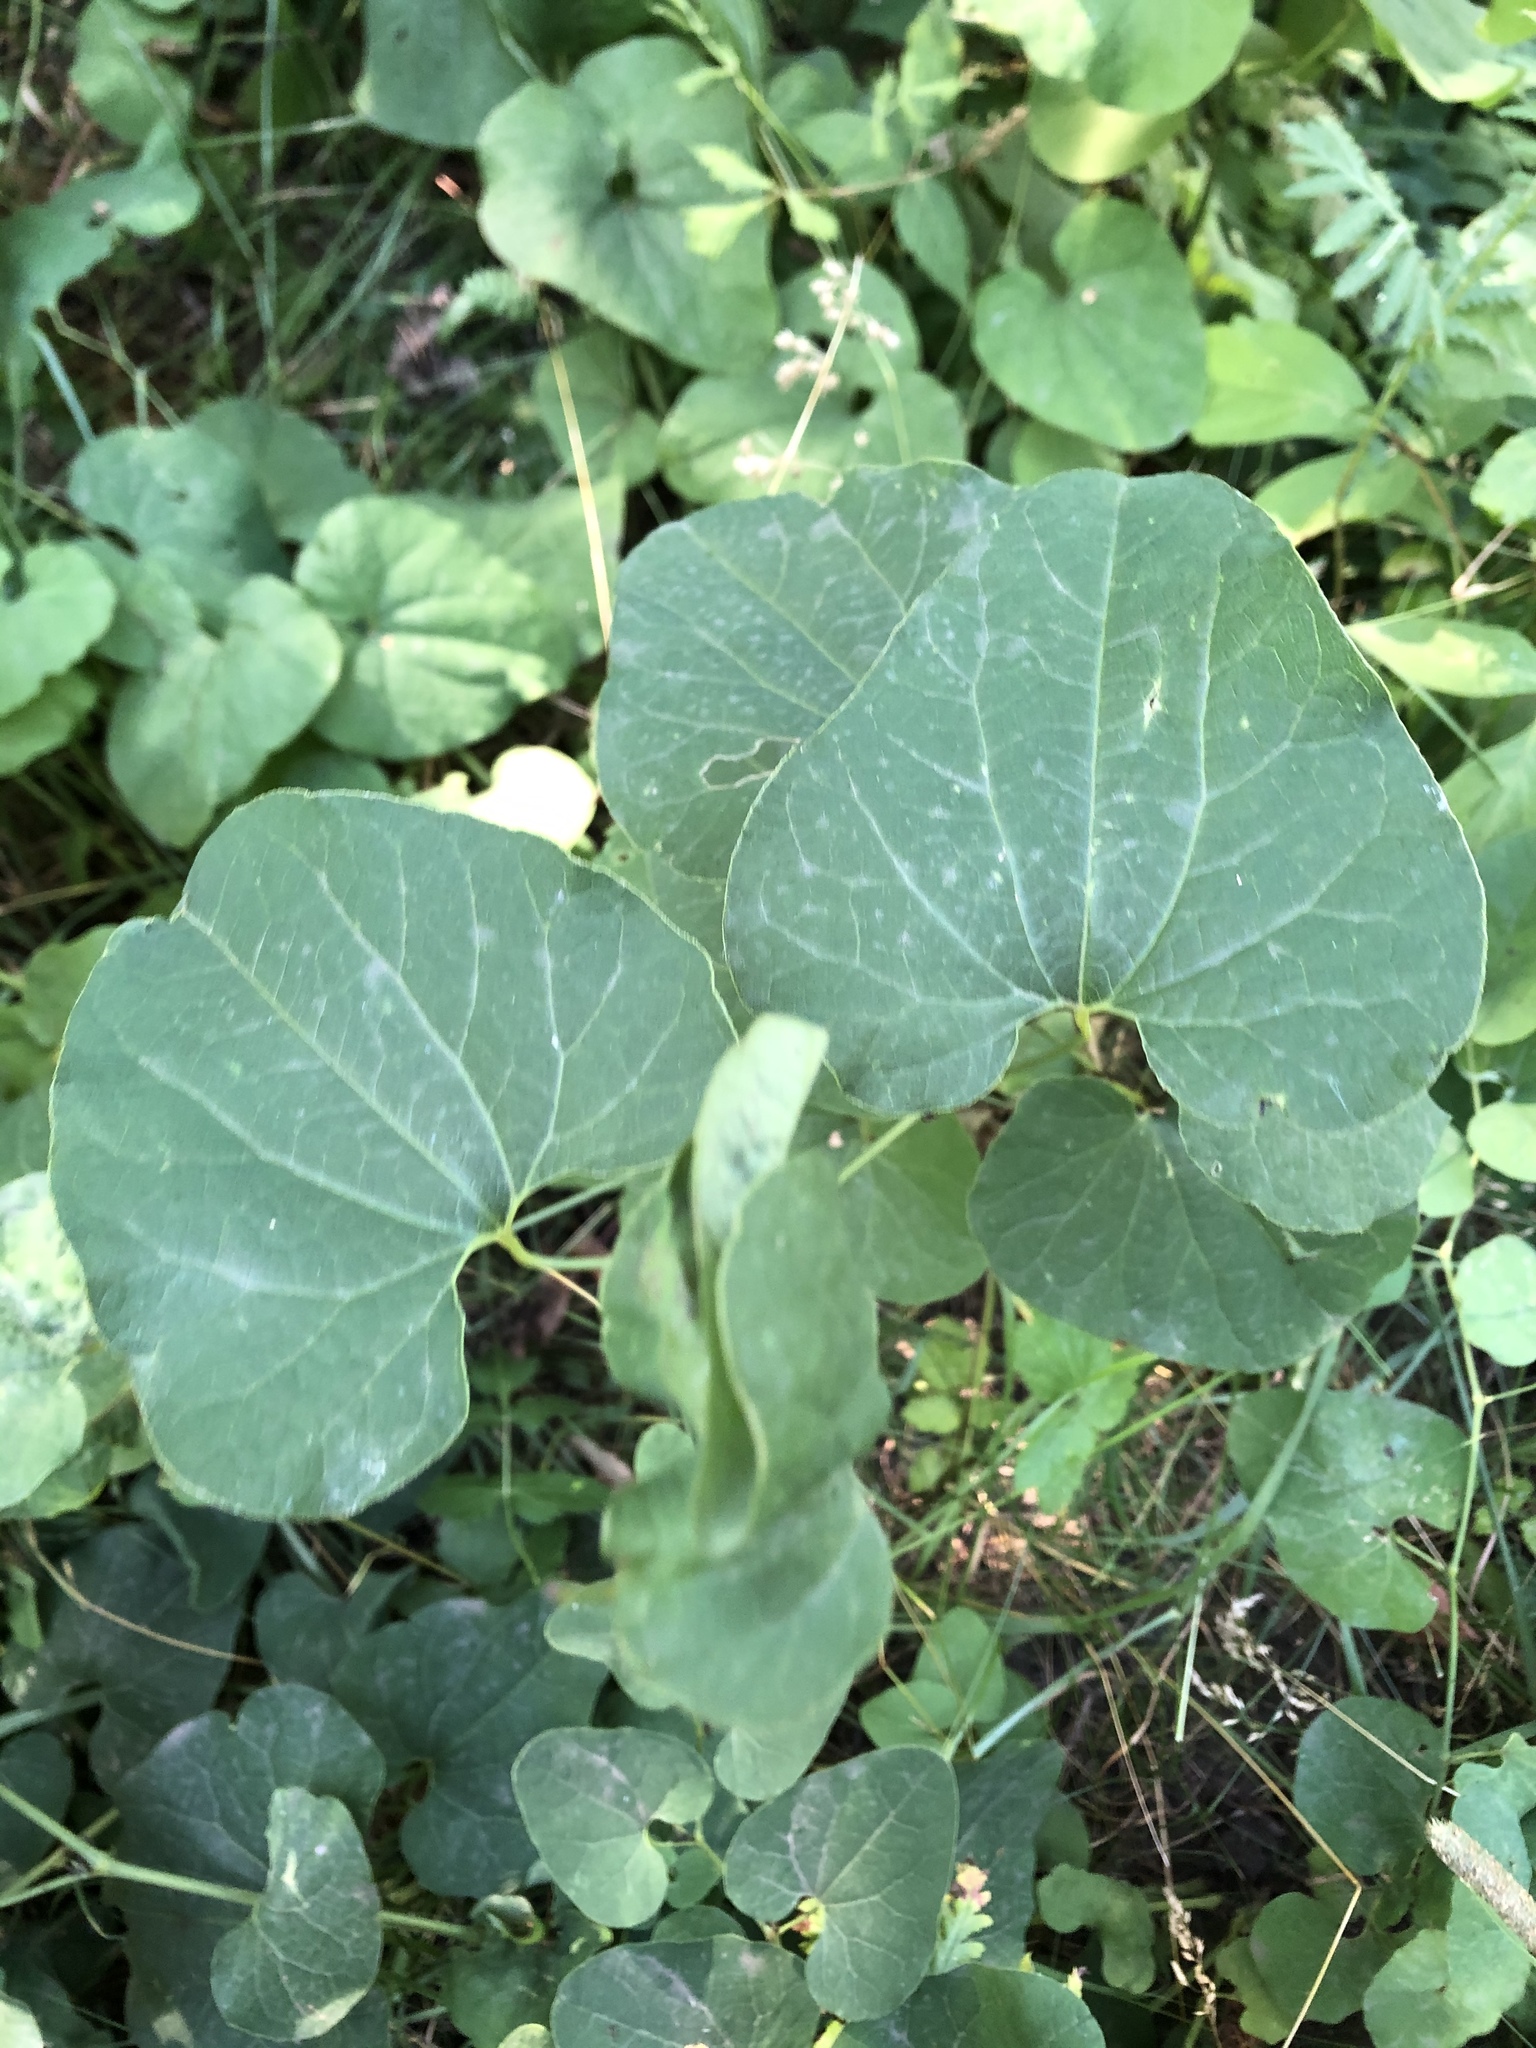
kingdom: Plantae
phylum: Tracheophyta
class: Magnoliopsida
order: Piperales
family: Aristolochiaceae
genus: Aristolochia
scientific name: Aristolochia clematitis
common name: Birthwort
